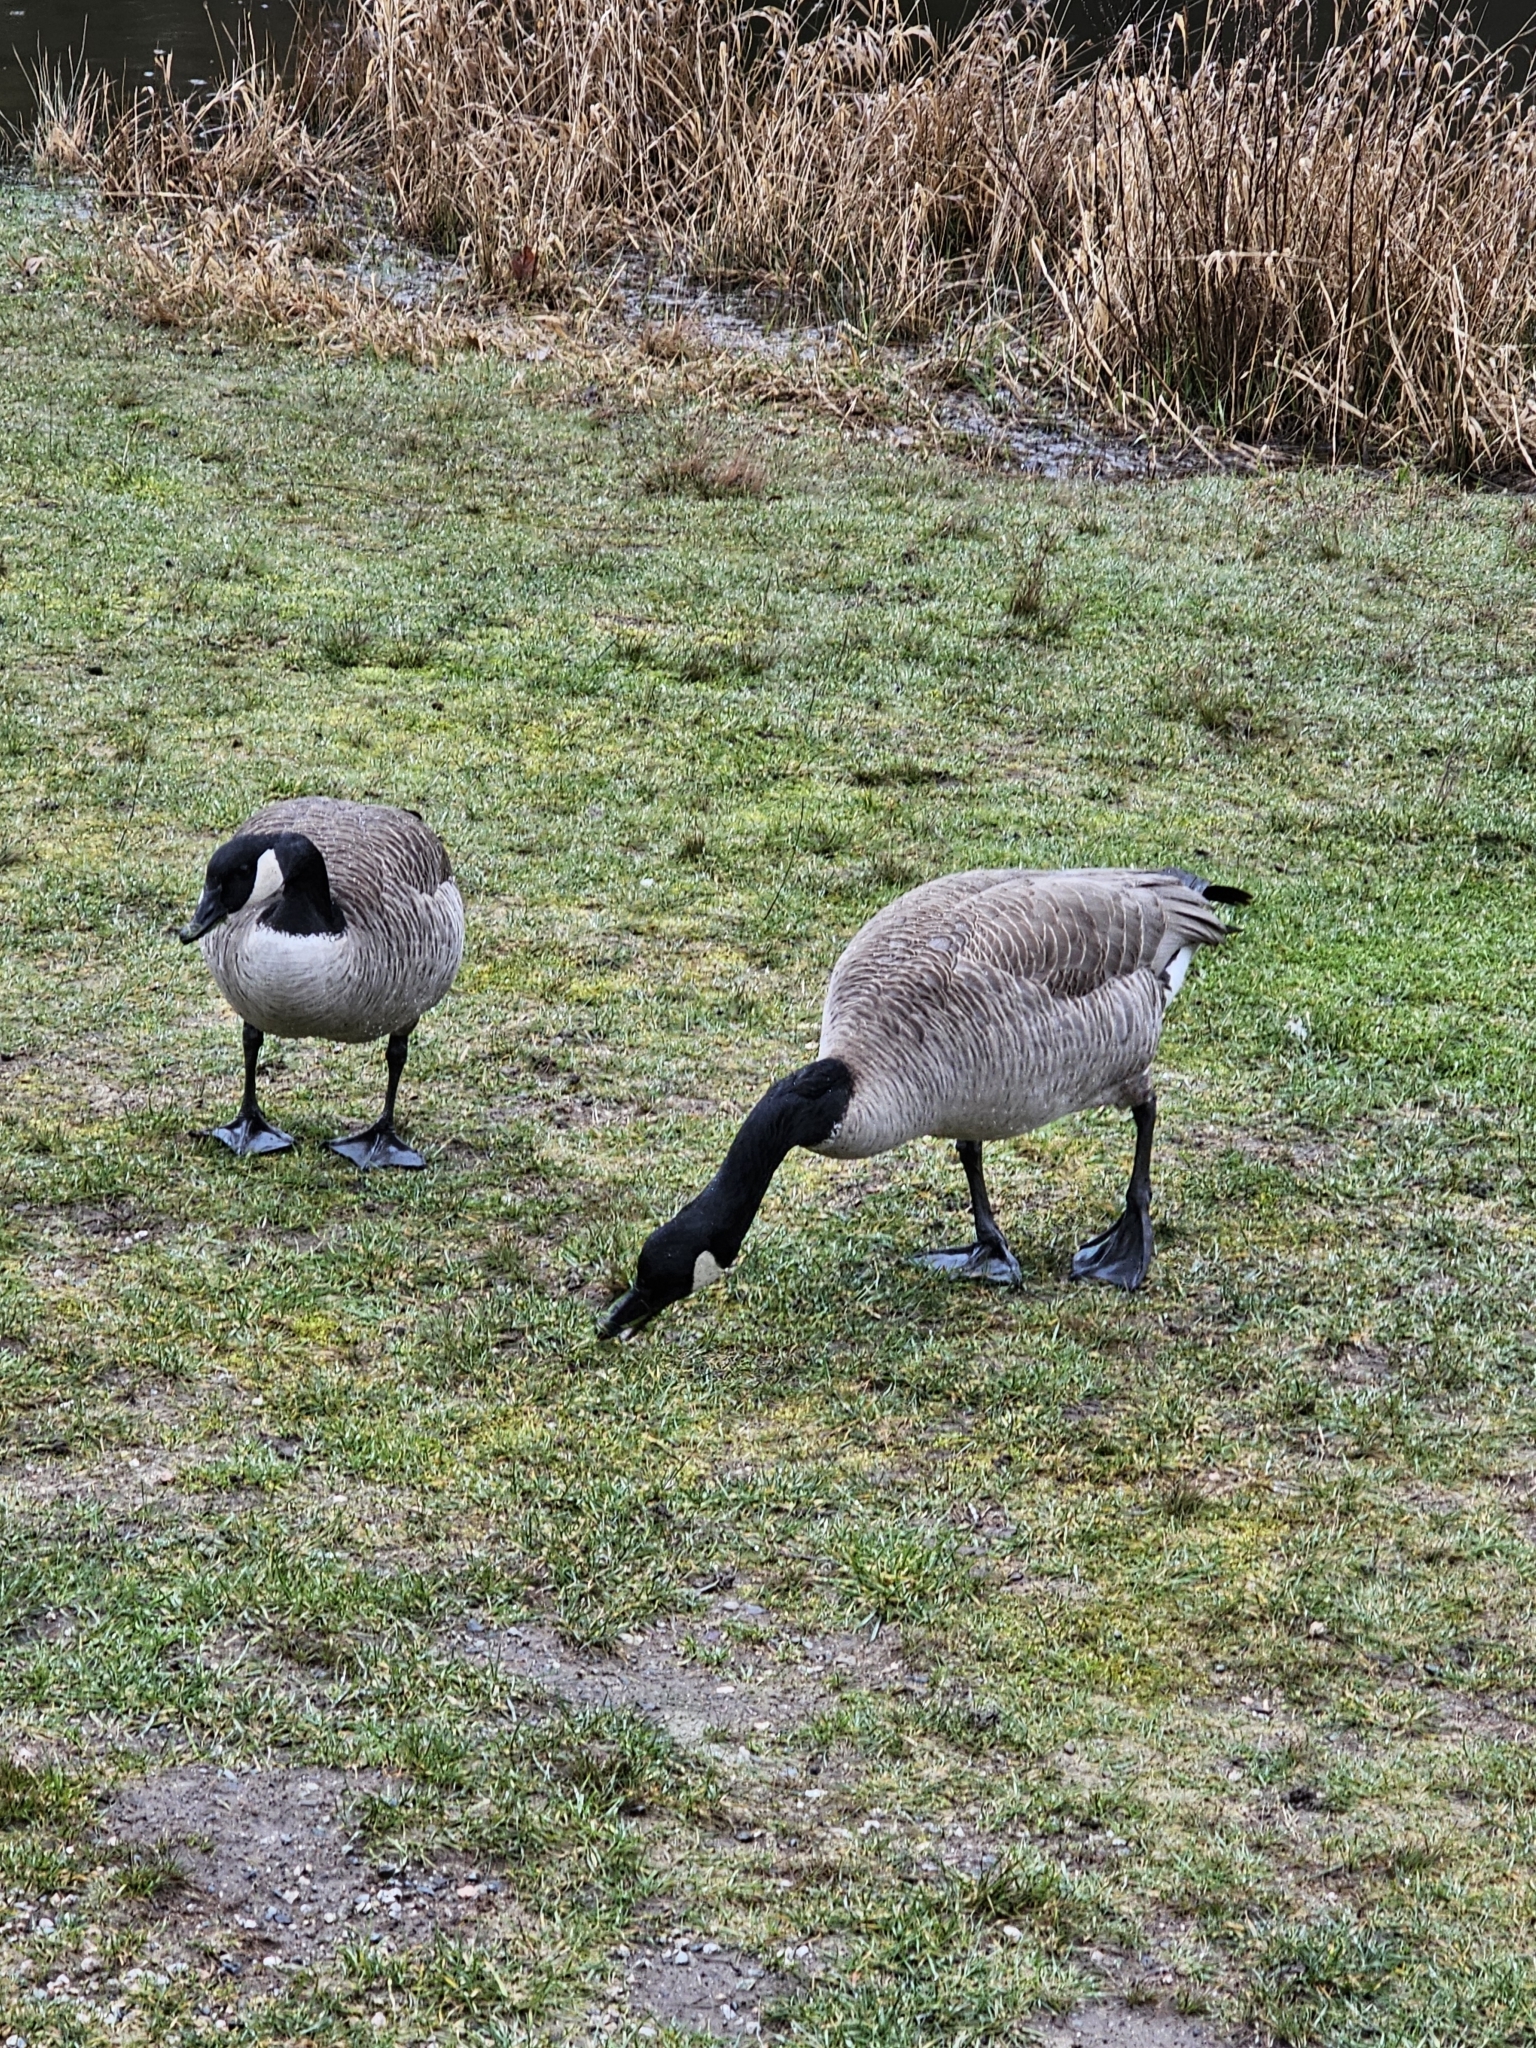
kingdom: Animalia
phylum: Chordata
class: Aves
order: Anseriformes
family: Anatidae
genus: Branta
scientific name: Branta canadensis
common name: Canada goose
